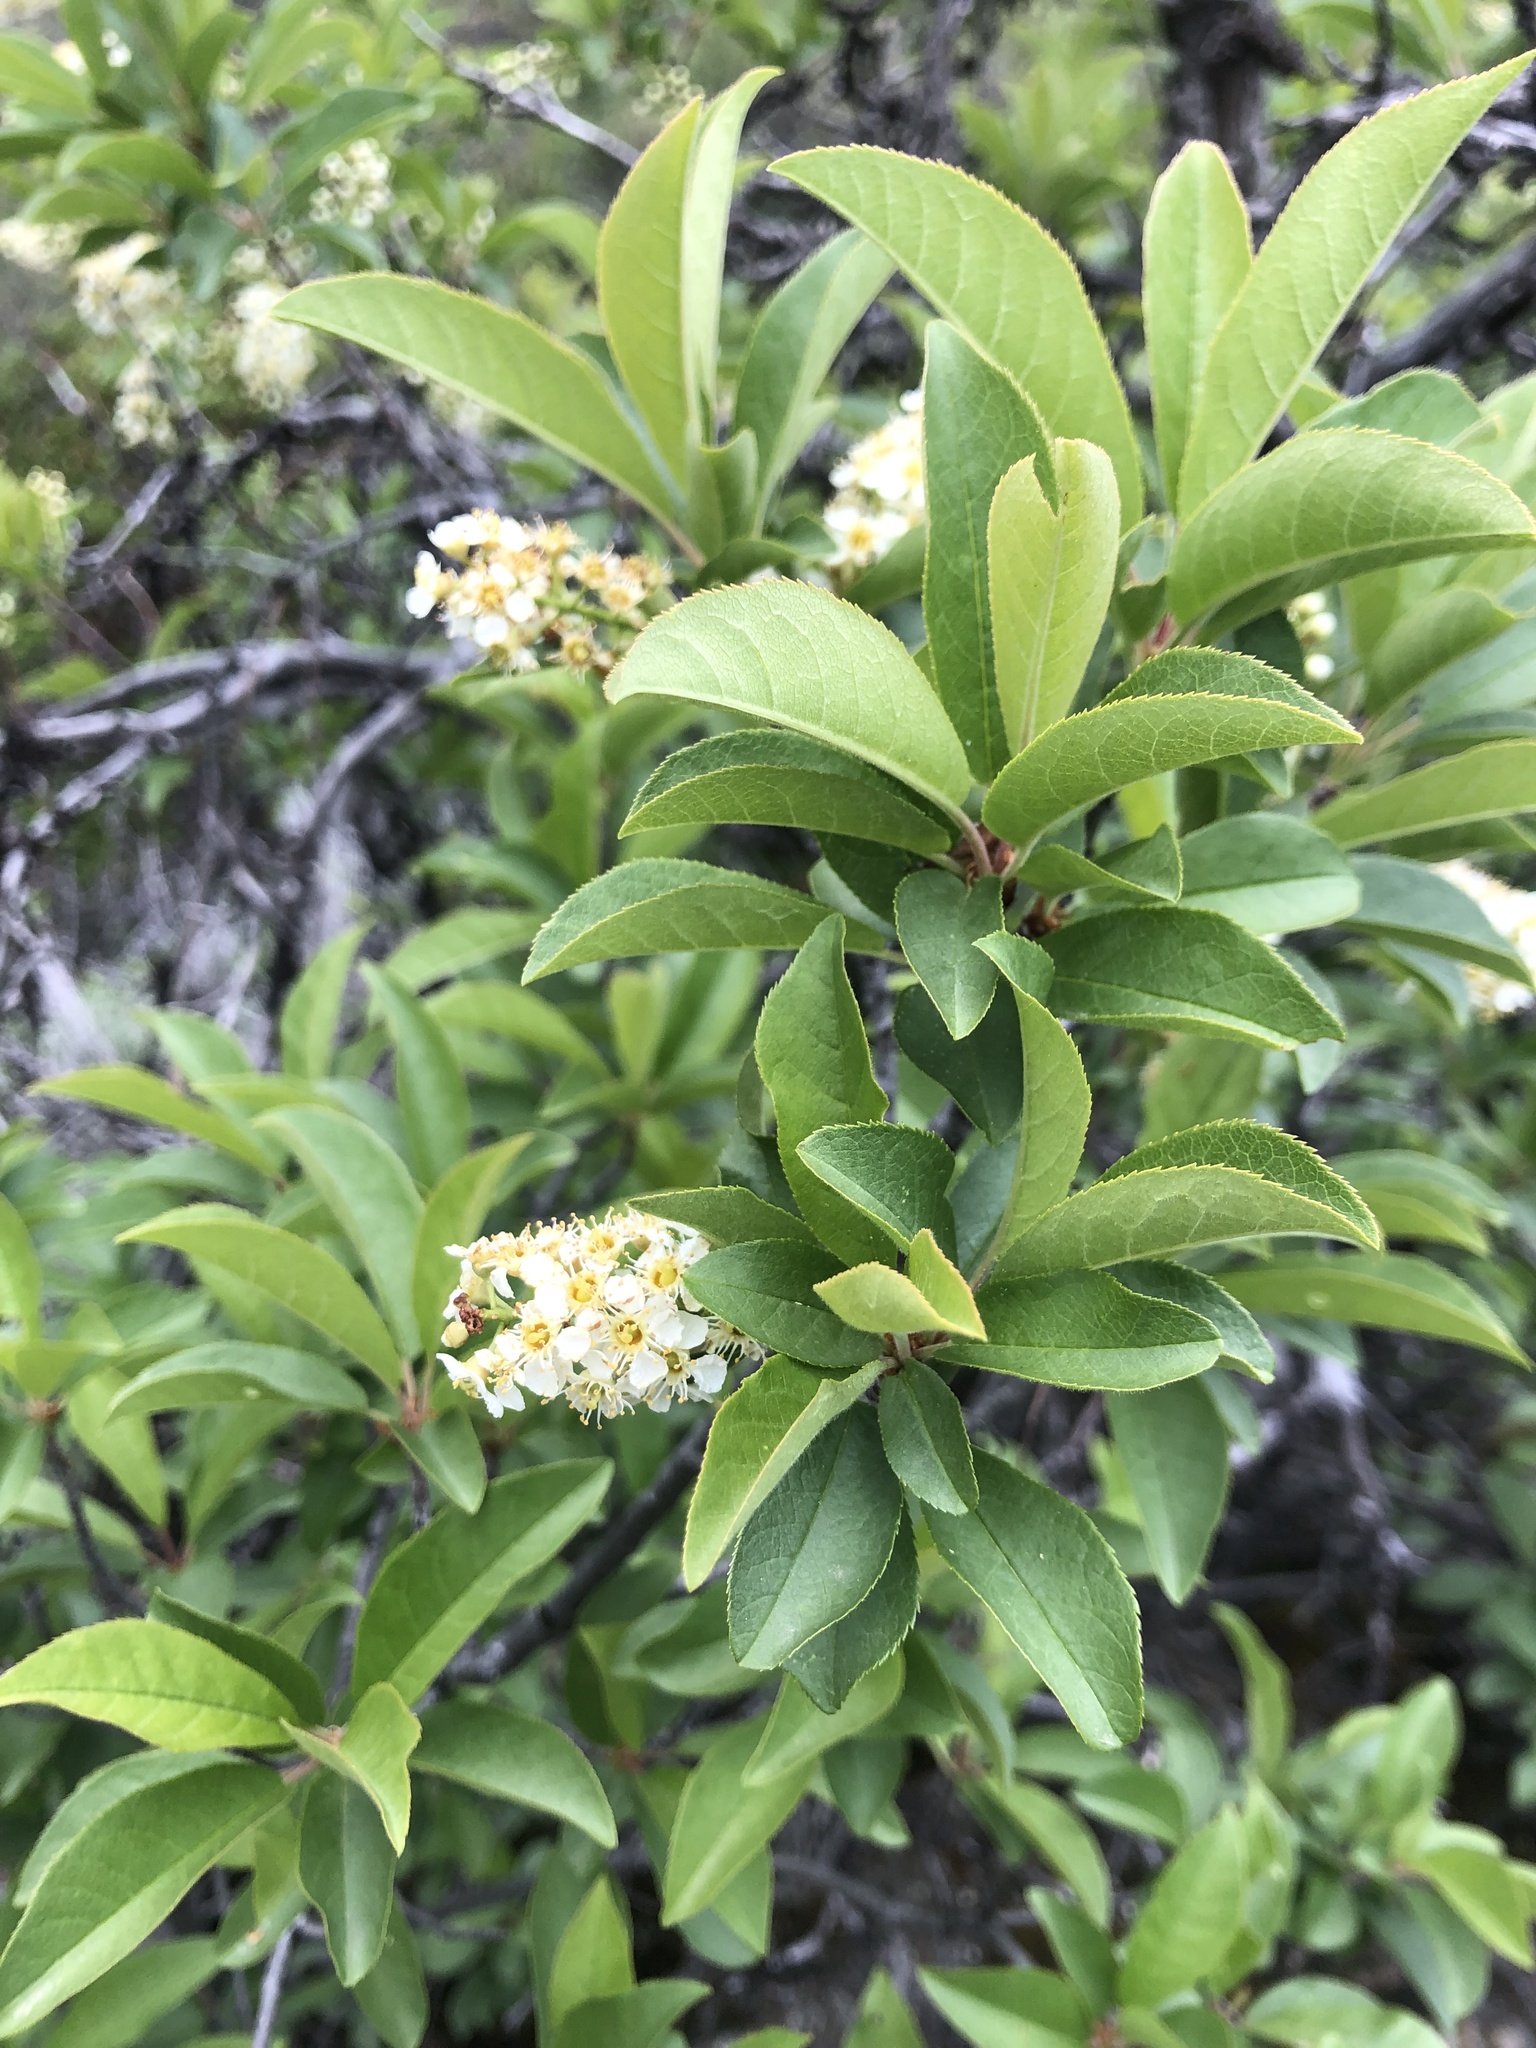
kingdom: Plantae
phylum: Tracheophyta
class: Magnoliopsida
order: Rosales
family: Rosaceae
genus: Prunus
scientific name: Prunus virginiana
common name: Chokecherry
